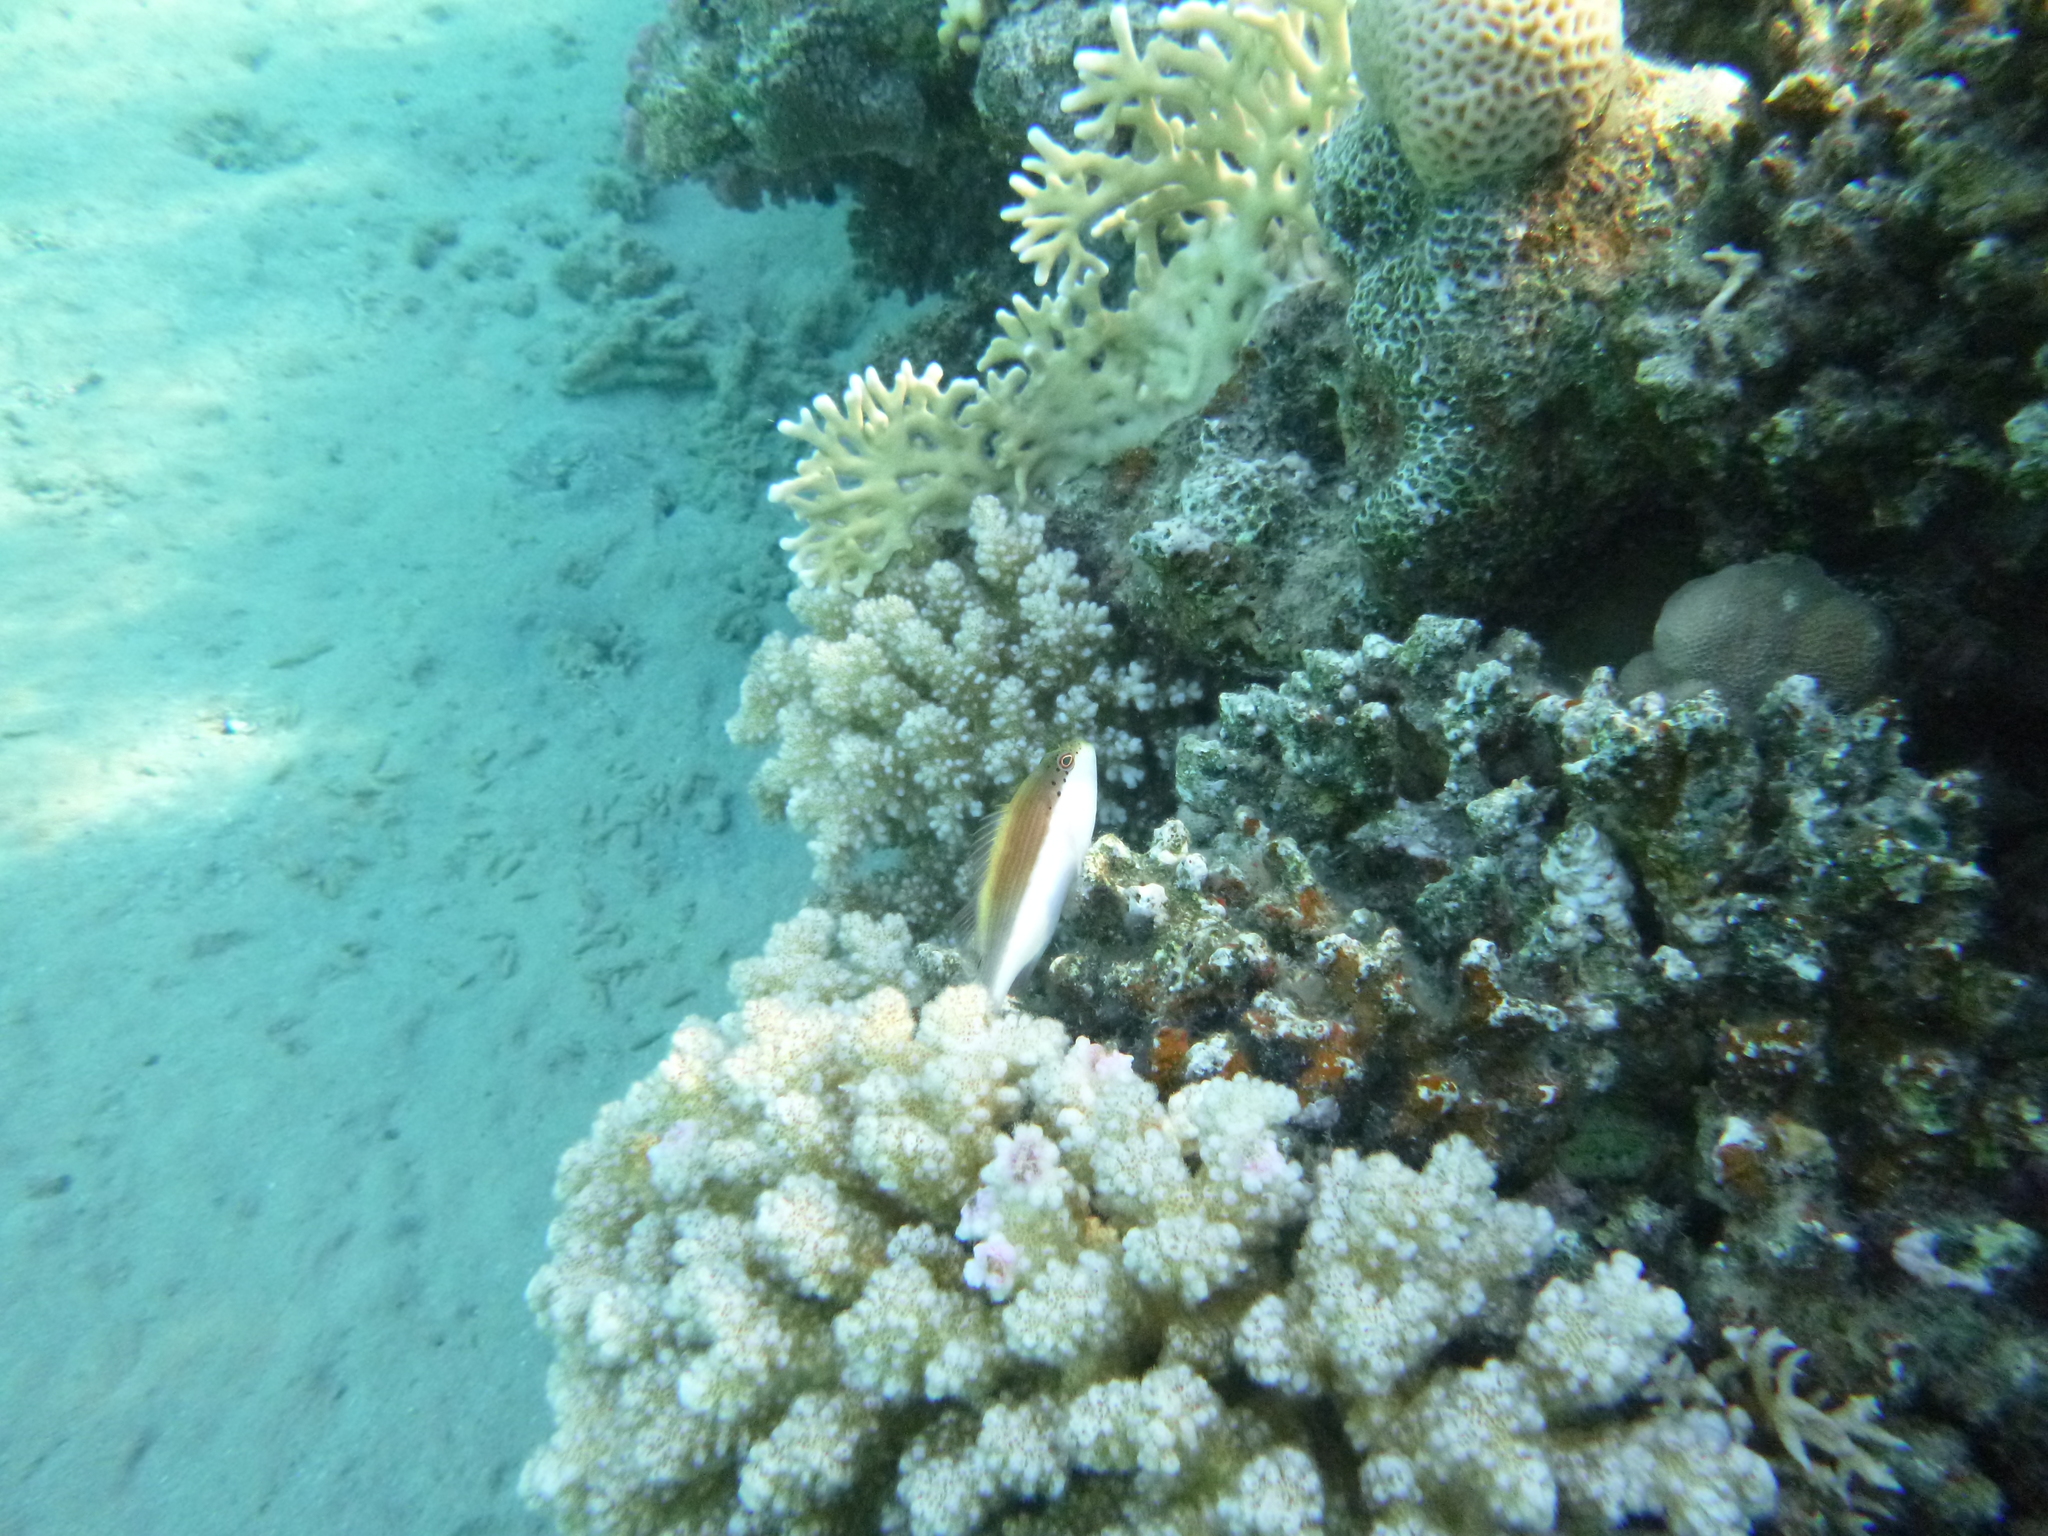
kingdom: Animalia
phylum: Chordata
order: Perciformes
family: Cirrhitidae
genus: Paracirrhites
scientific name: Paracirrhites forsteri
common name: Freckled hawkfish
